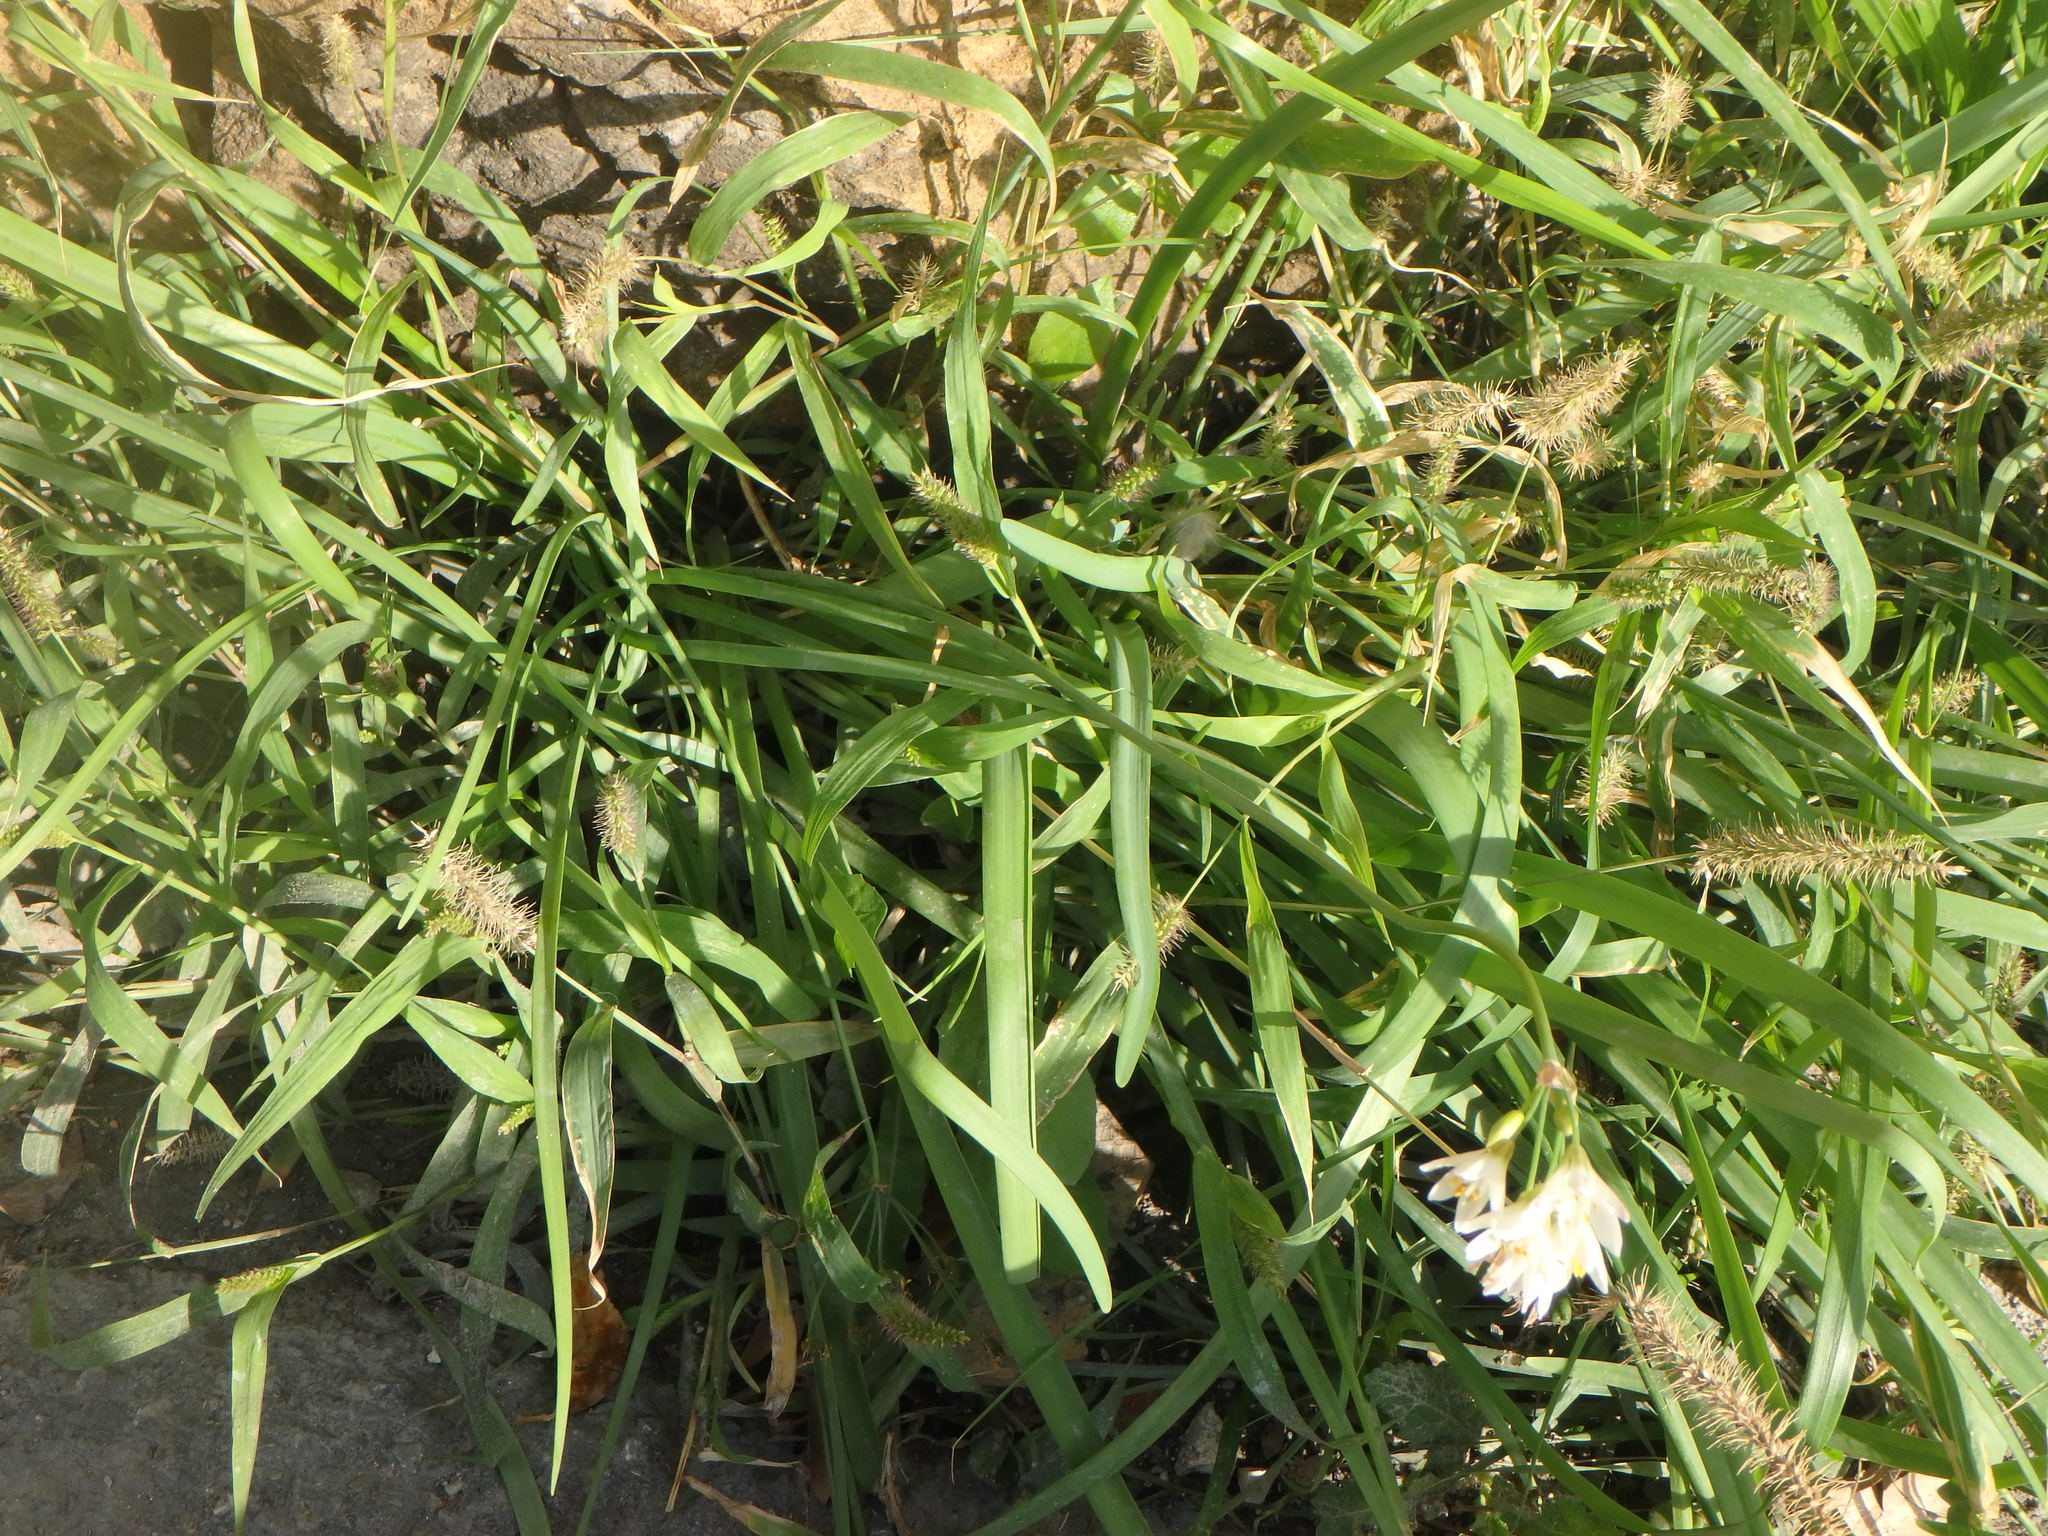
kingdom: Plantae
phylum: Tracheophyta
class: Liliopsida
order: Asparagales
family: Amaryllidaceae
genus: Nothoscordum
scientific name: Nothoscordum gracile
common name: Slender false garlic
